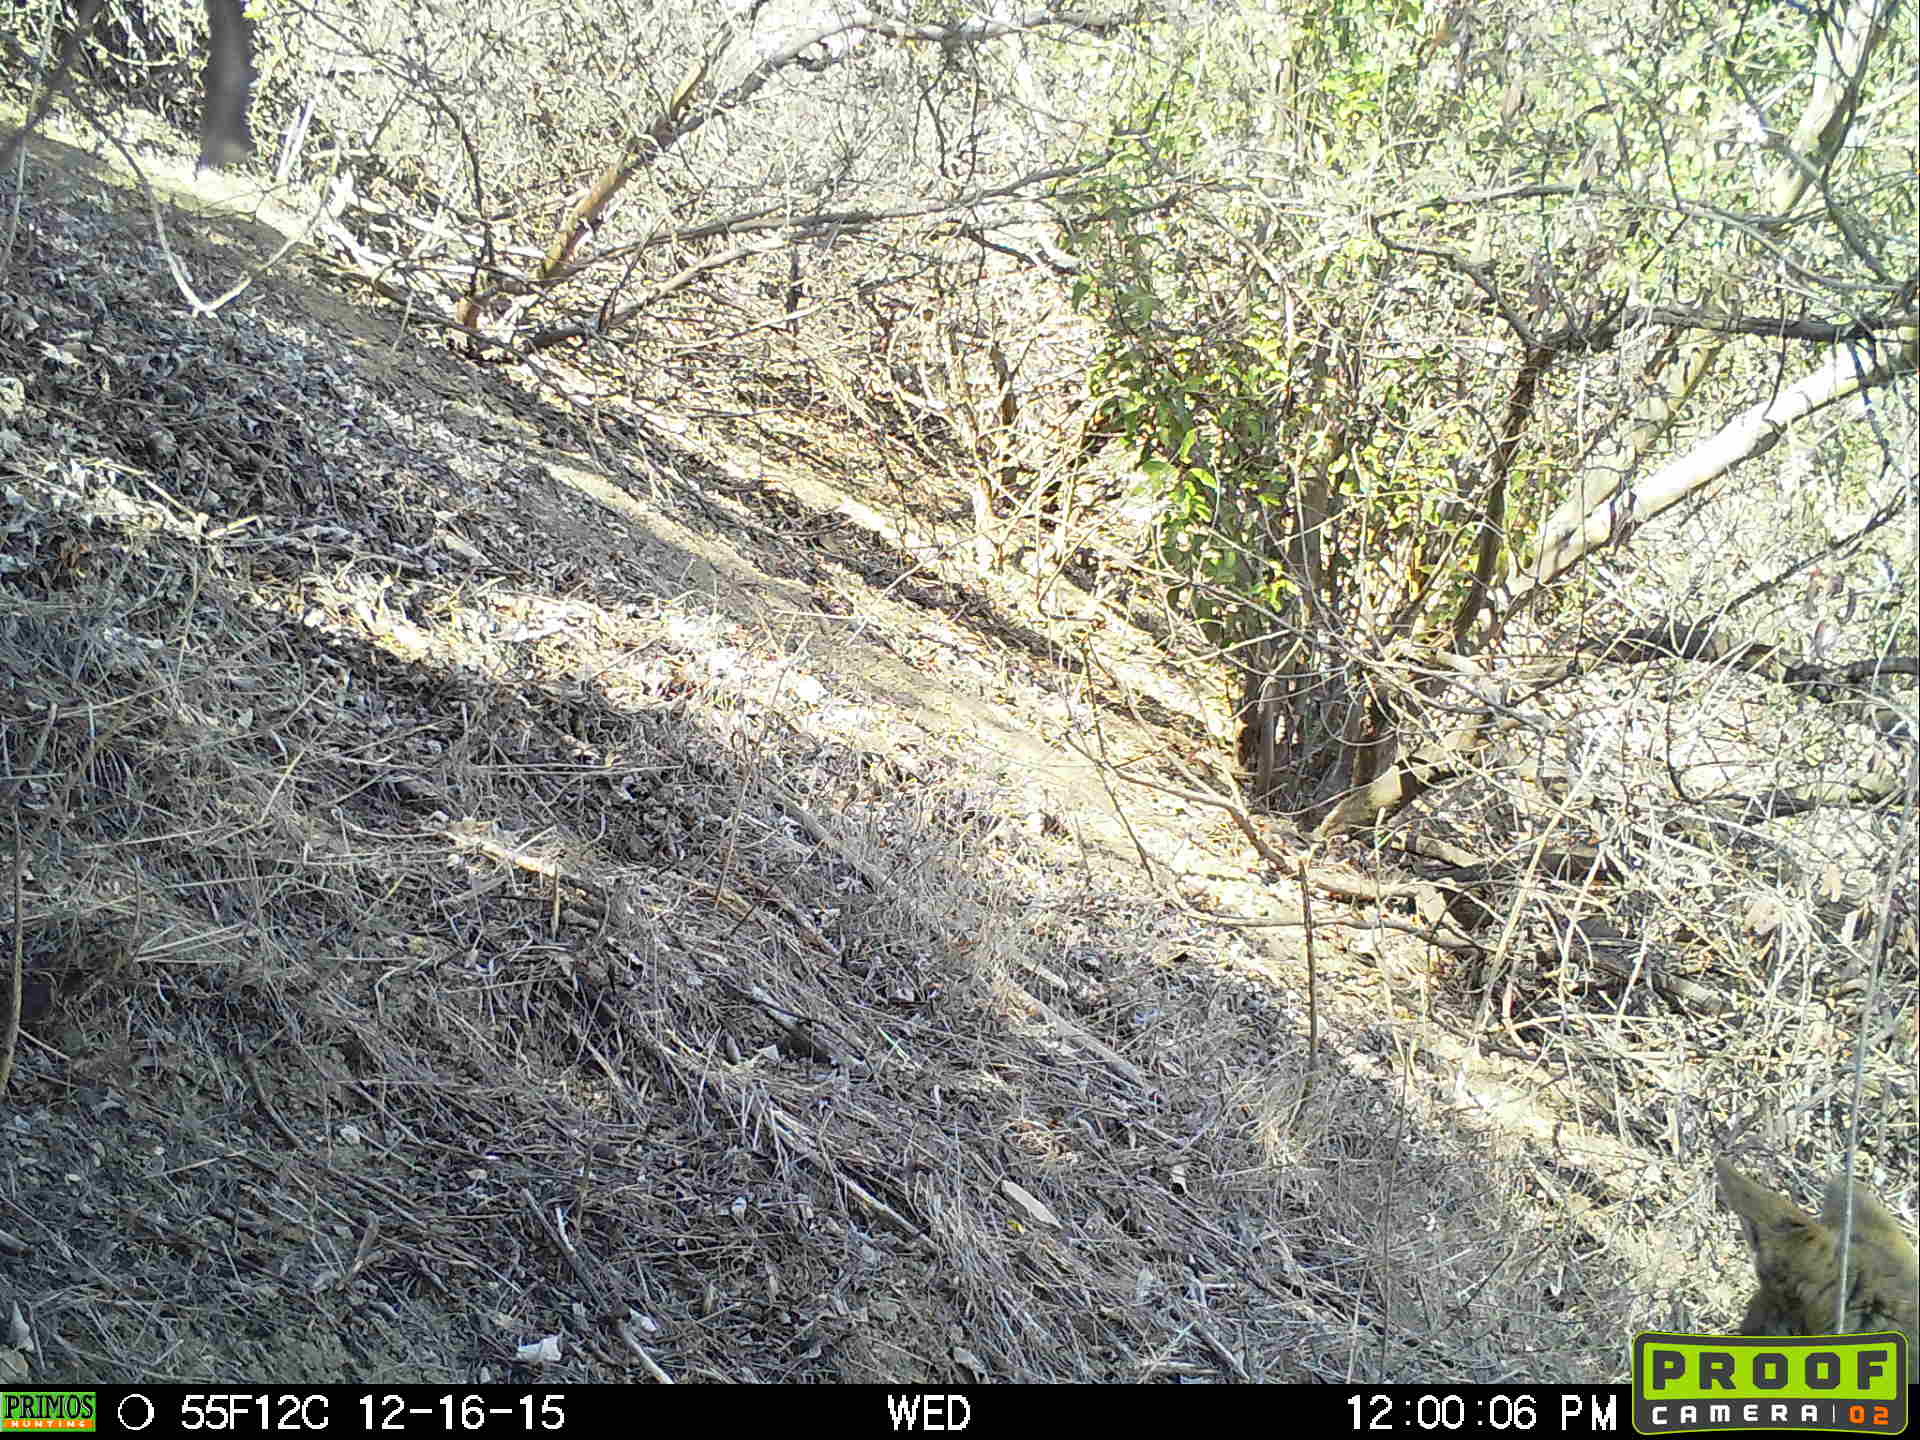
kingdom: Animalia
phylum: Chordata
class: Mammalia
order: Carnivora
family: Canidae
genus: Canis
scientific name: Canis latrans
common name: Coyote
